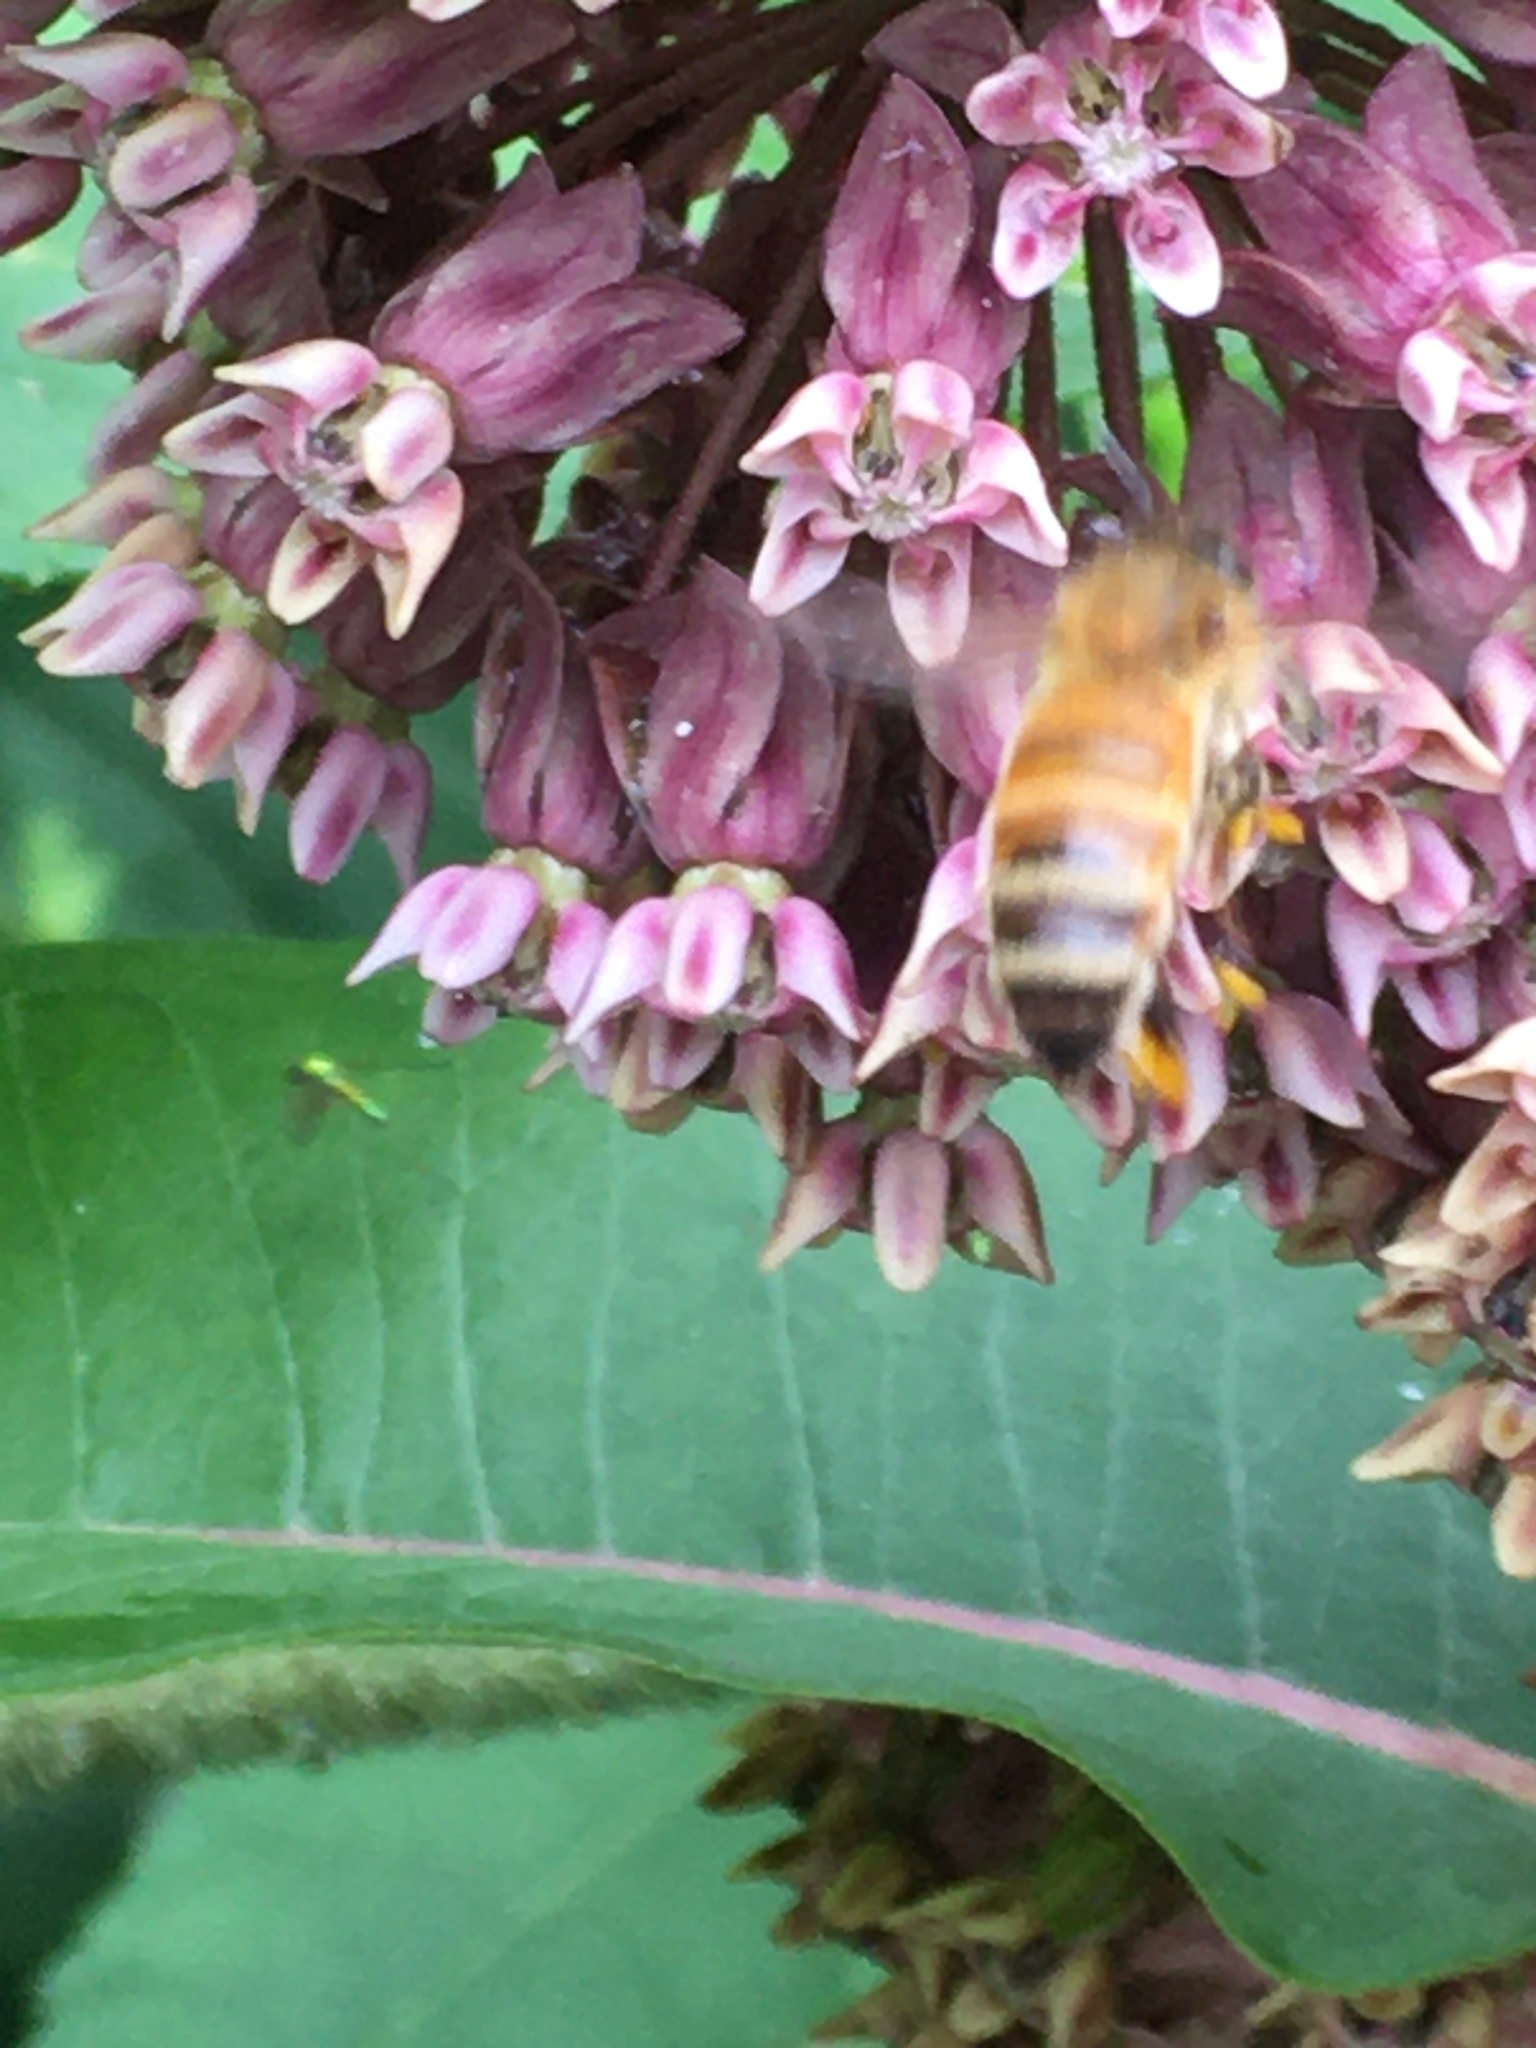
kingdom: Animalia
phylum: Arthropoda
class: Insecta
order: Hymenoptera
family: Apidae
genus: Apis
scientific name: Apis mellifera
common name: Honey bee
